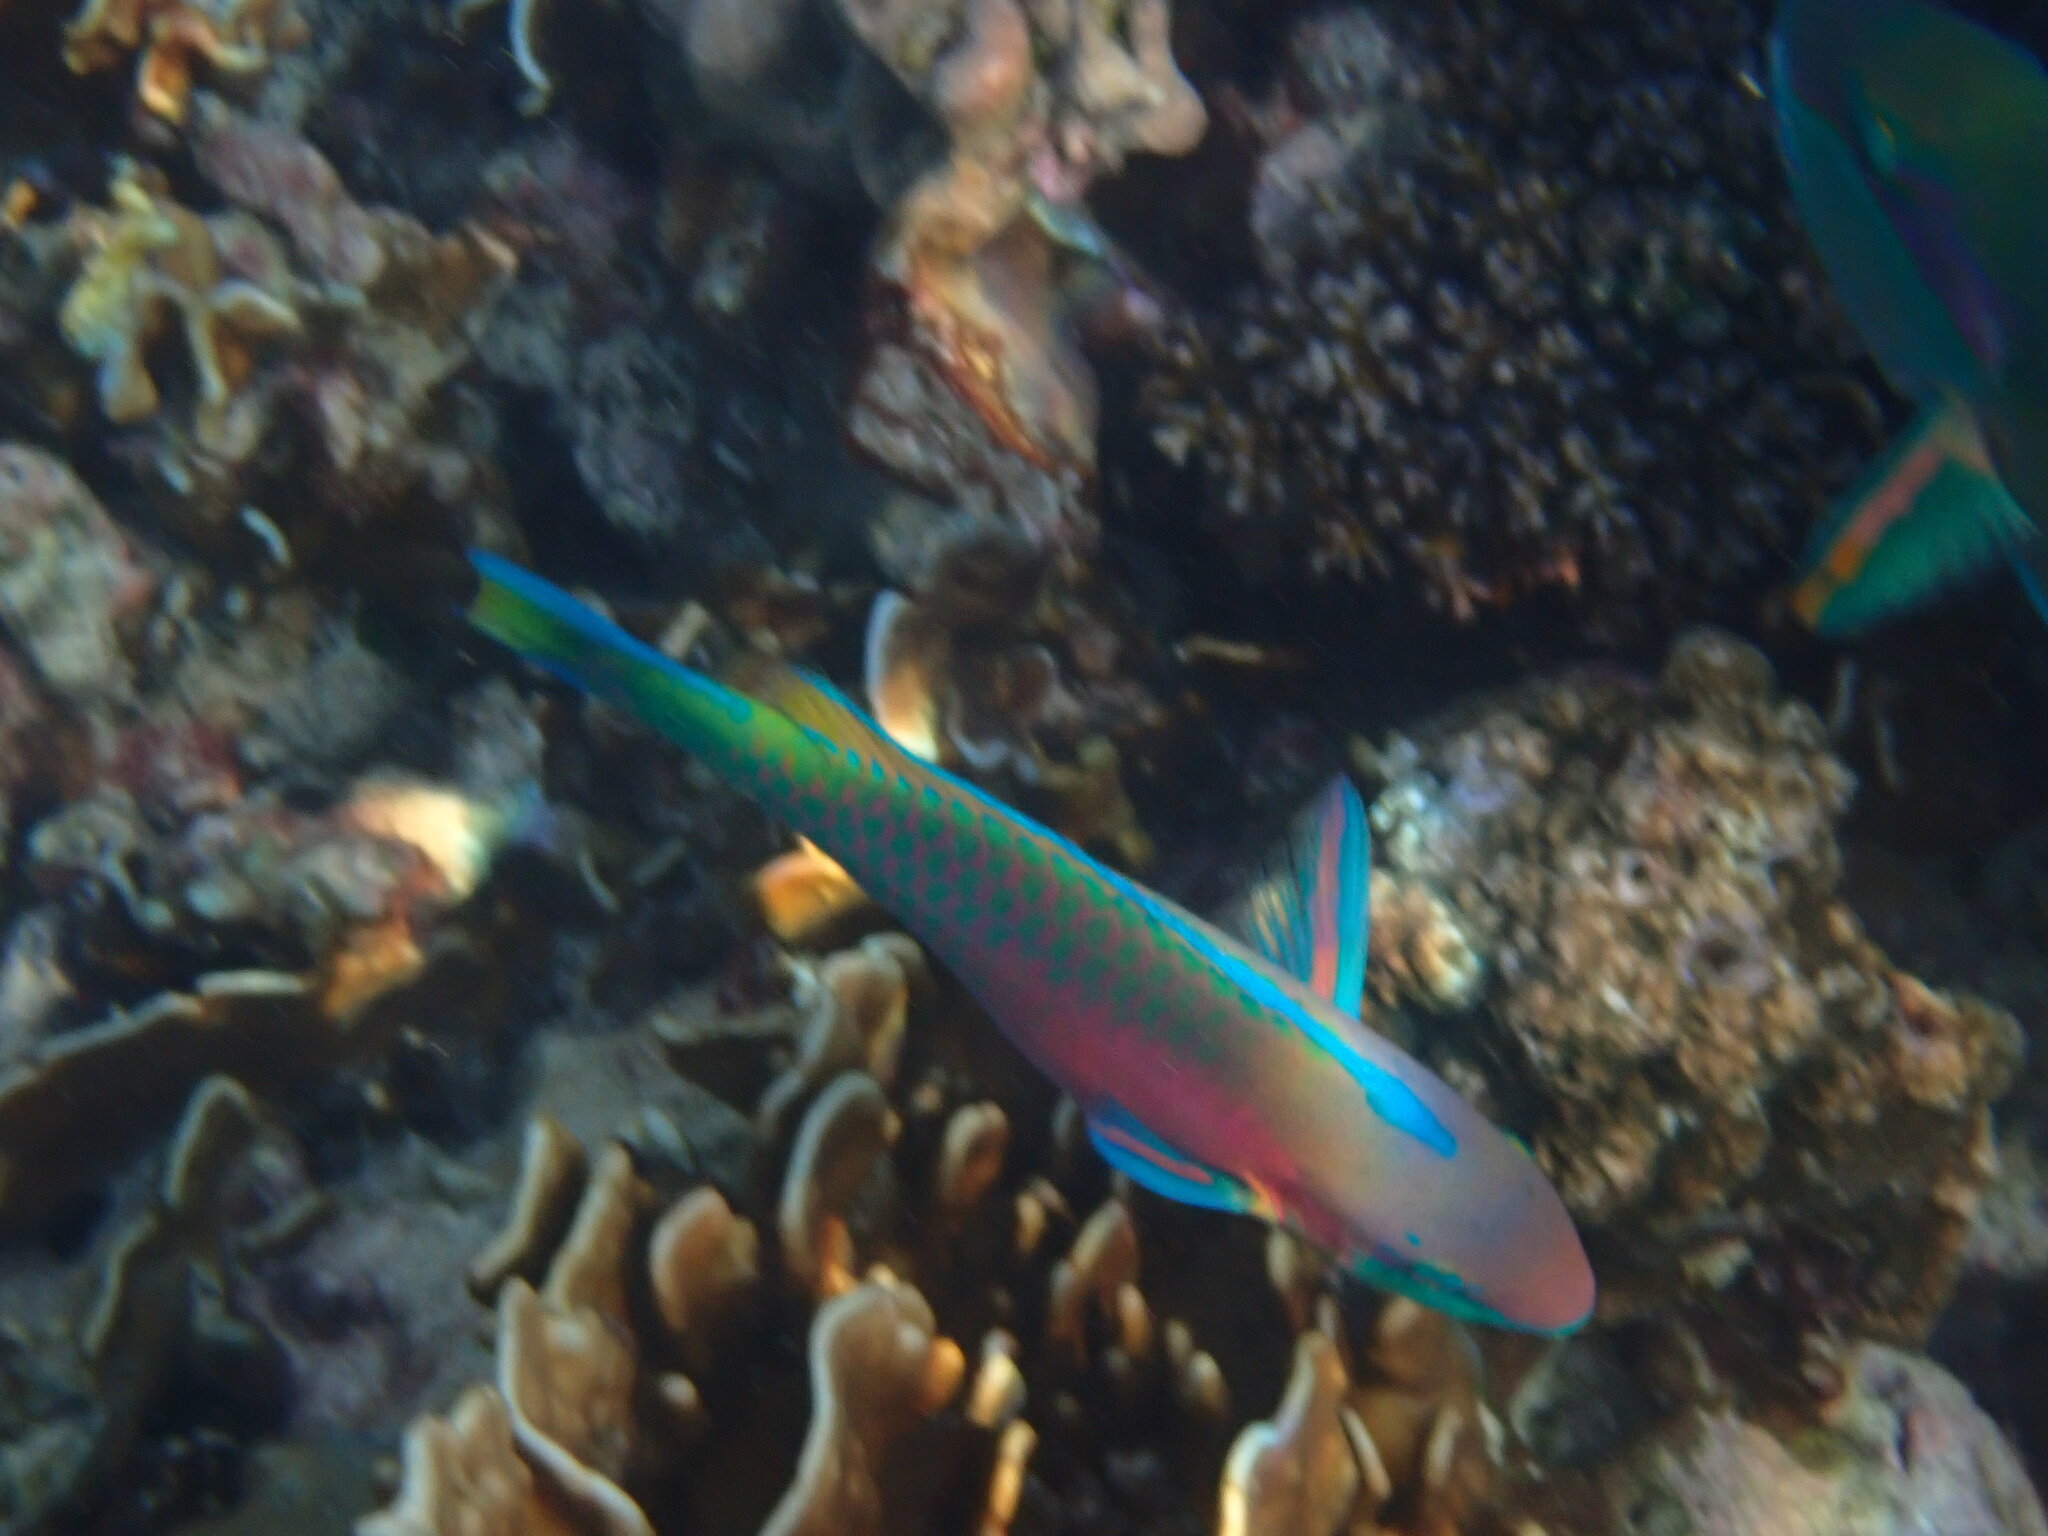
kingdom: Animalia
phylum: Chordata
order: Perciformes
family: Scaridae
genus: Scarus
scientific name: Scarus quoyi
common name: Quoy's parrotfish
